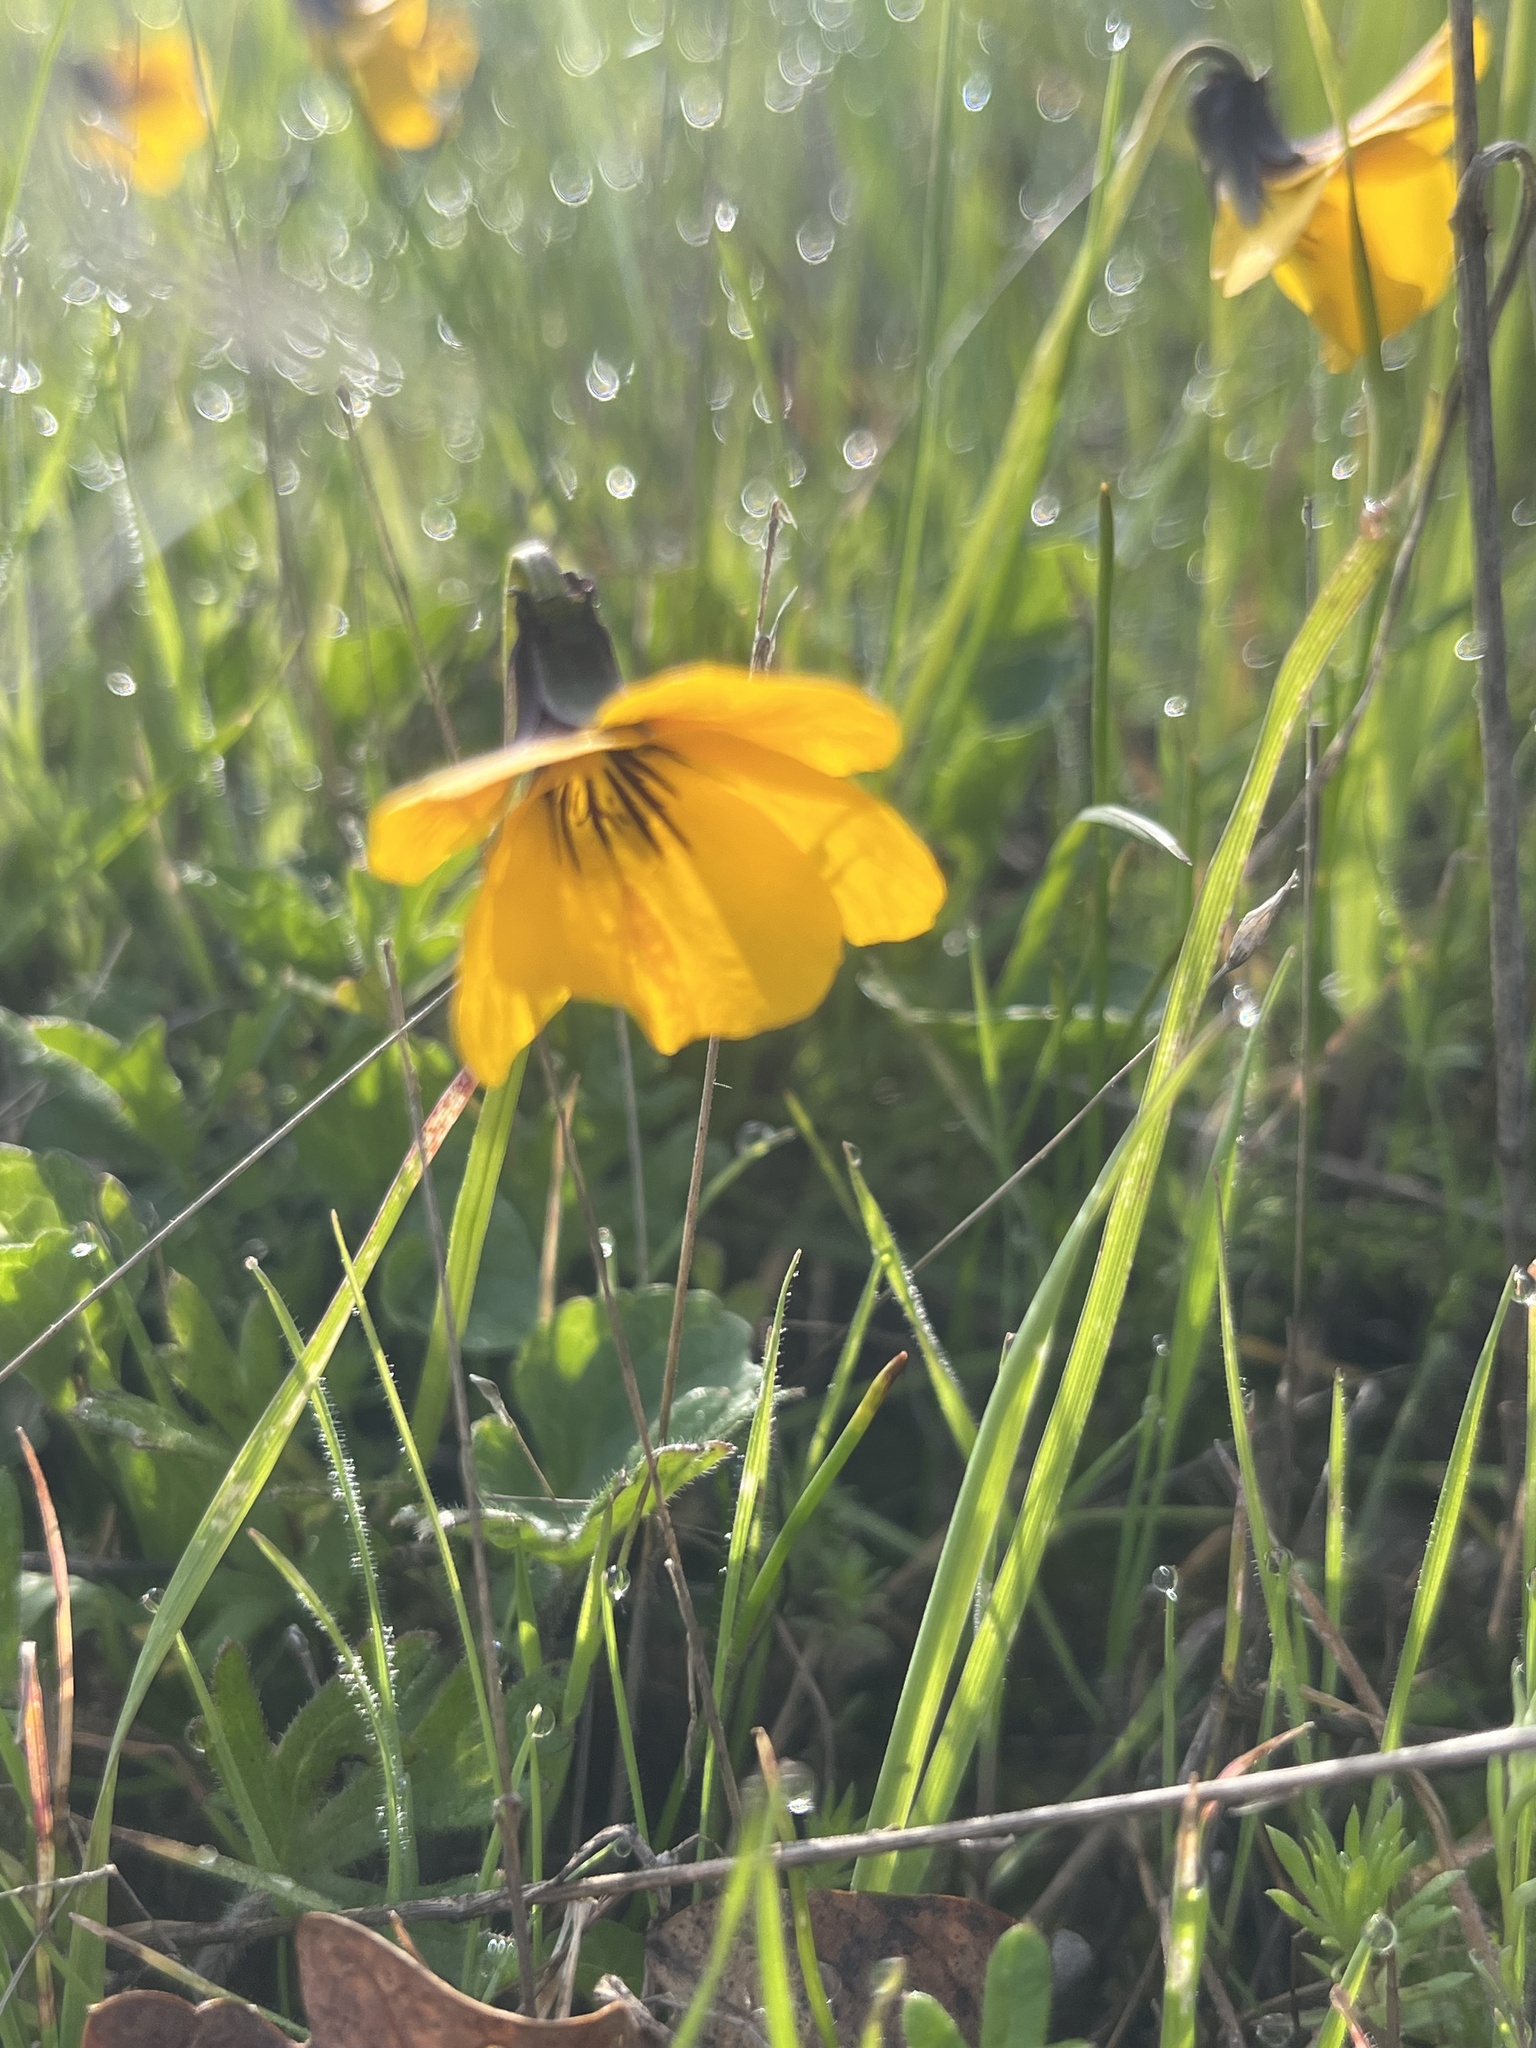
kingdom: Plantae
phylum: Tracheophyta
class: Magnoliopsida
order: Malpighiales
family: Violaceae
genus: Viola
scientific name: Viola pedunculata
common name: California golden violet
